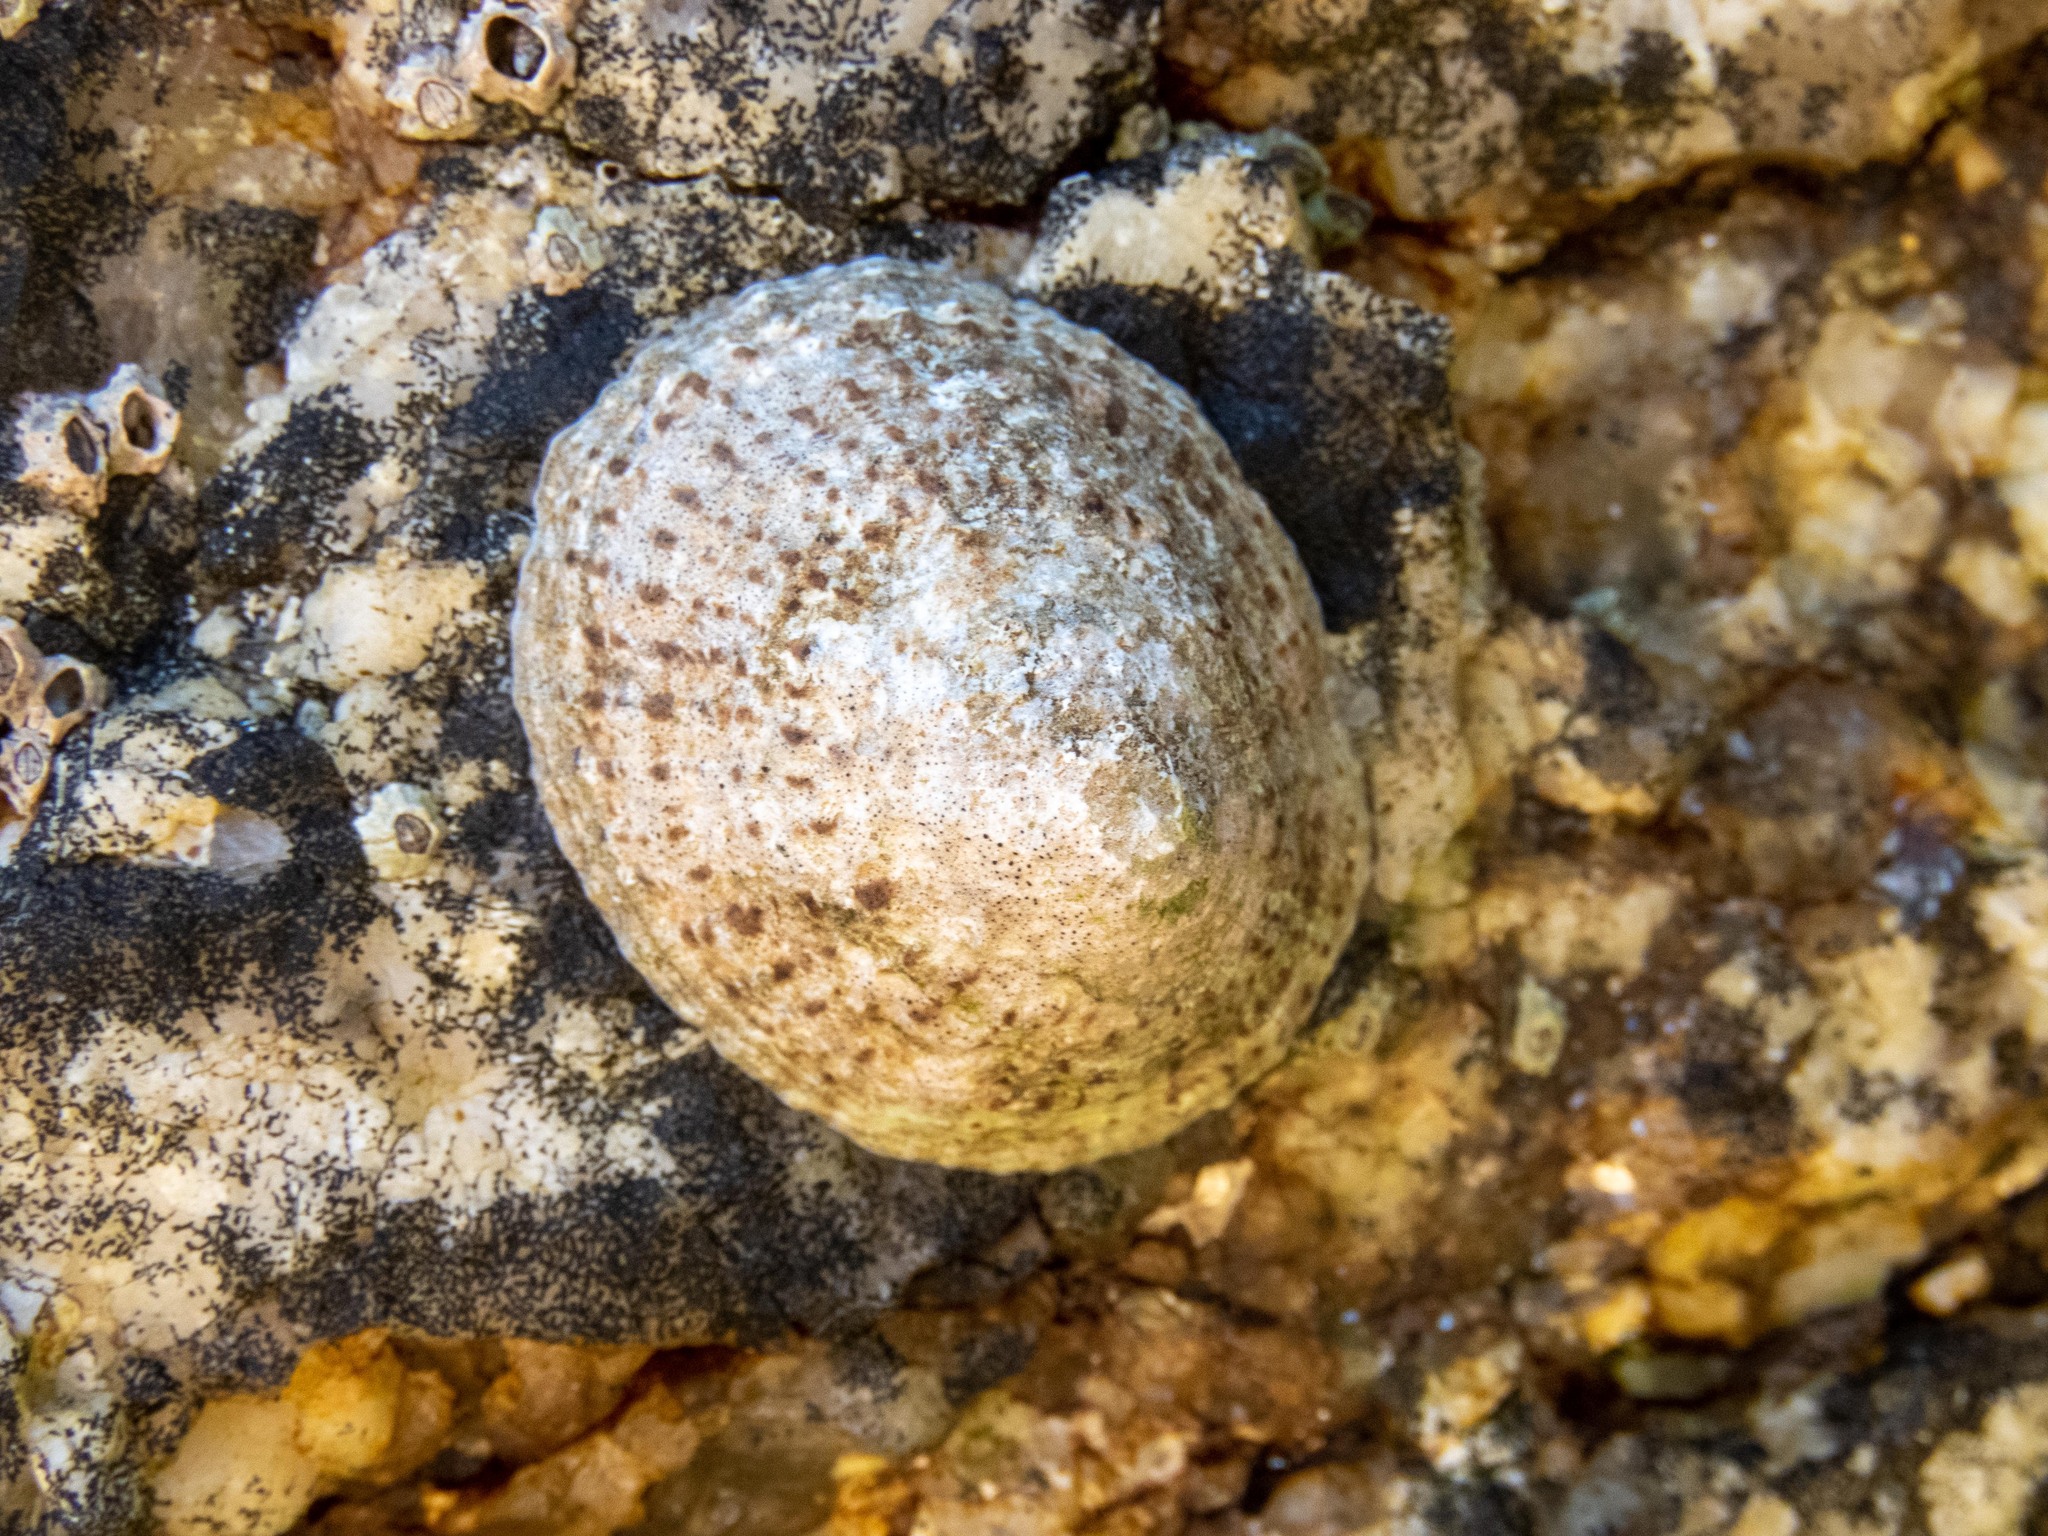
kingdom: Animalia
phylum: Mollusca
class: Gastropoda
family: Patellidae
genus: Patella
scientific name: Patella rustica
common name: Lusitanian limpet
